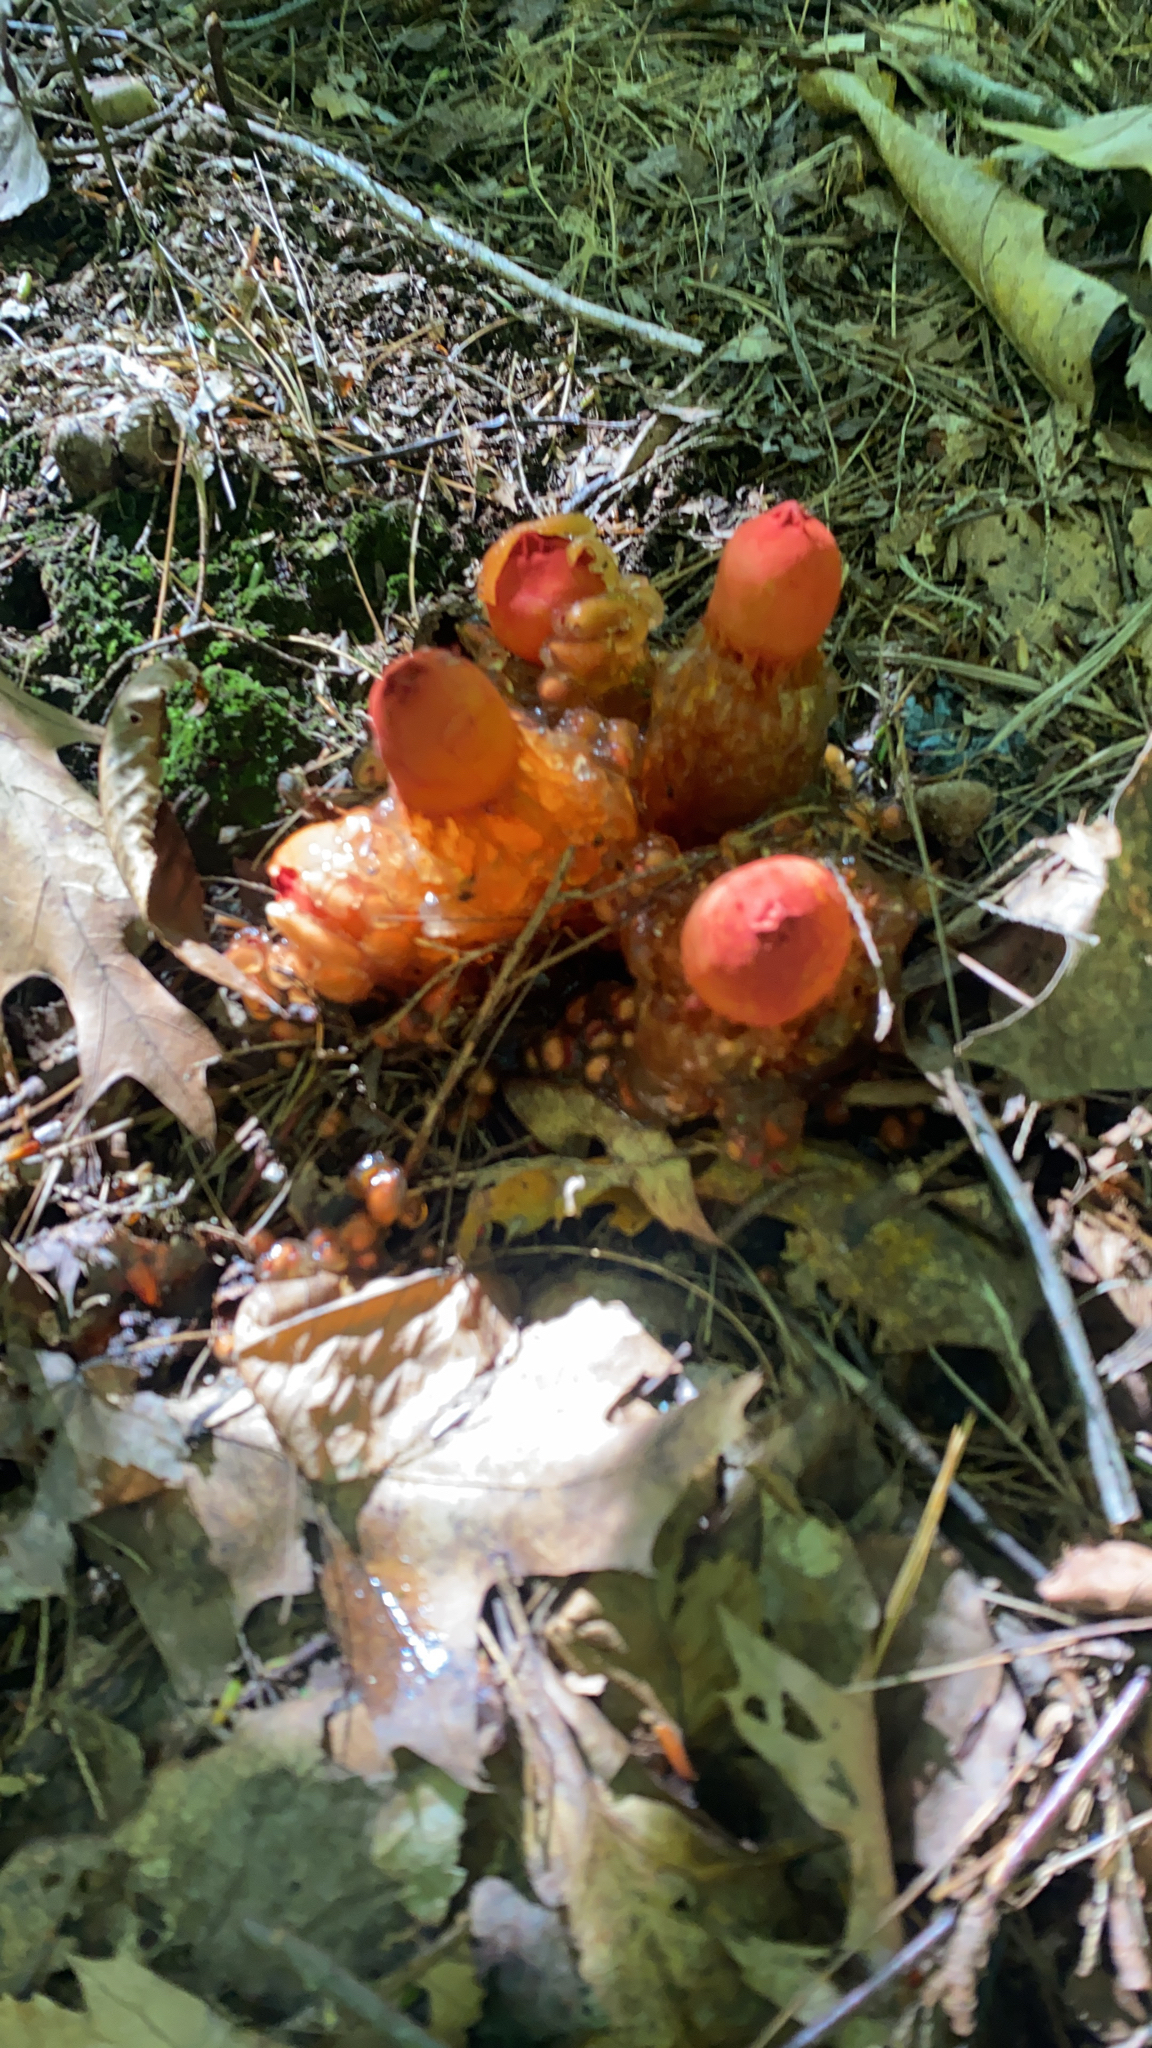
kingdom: Fungi
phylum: Basidiomycota
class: Agaricomycetes
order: Boletales
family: Calostomataceae
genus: Calostoma
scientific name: Calostoma cinnabarinum
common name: Stalked puffball-in-aspic
